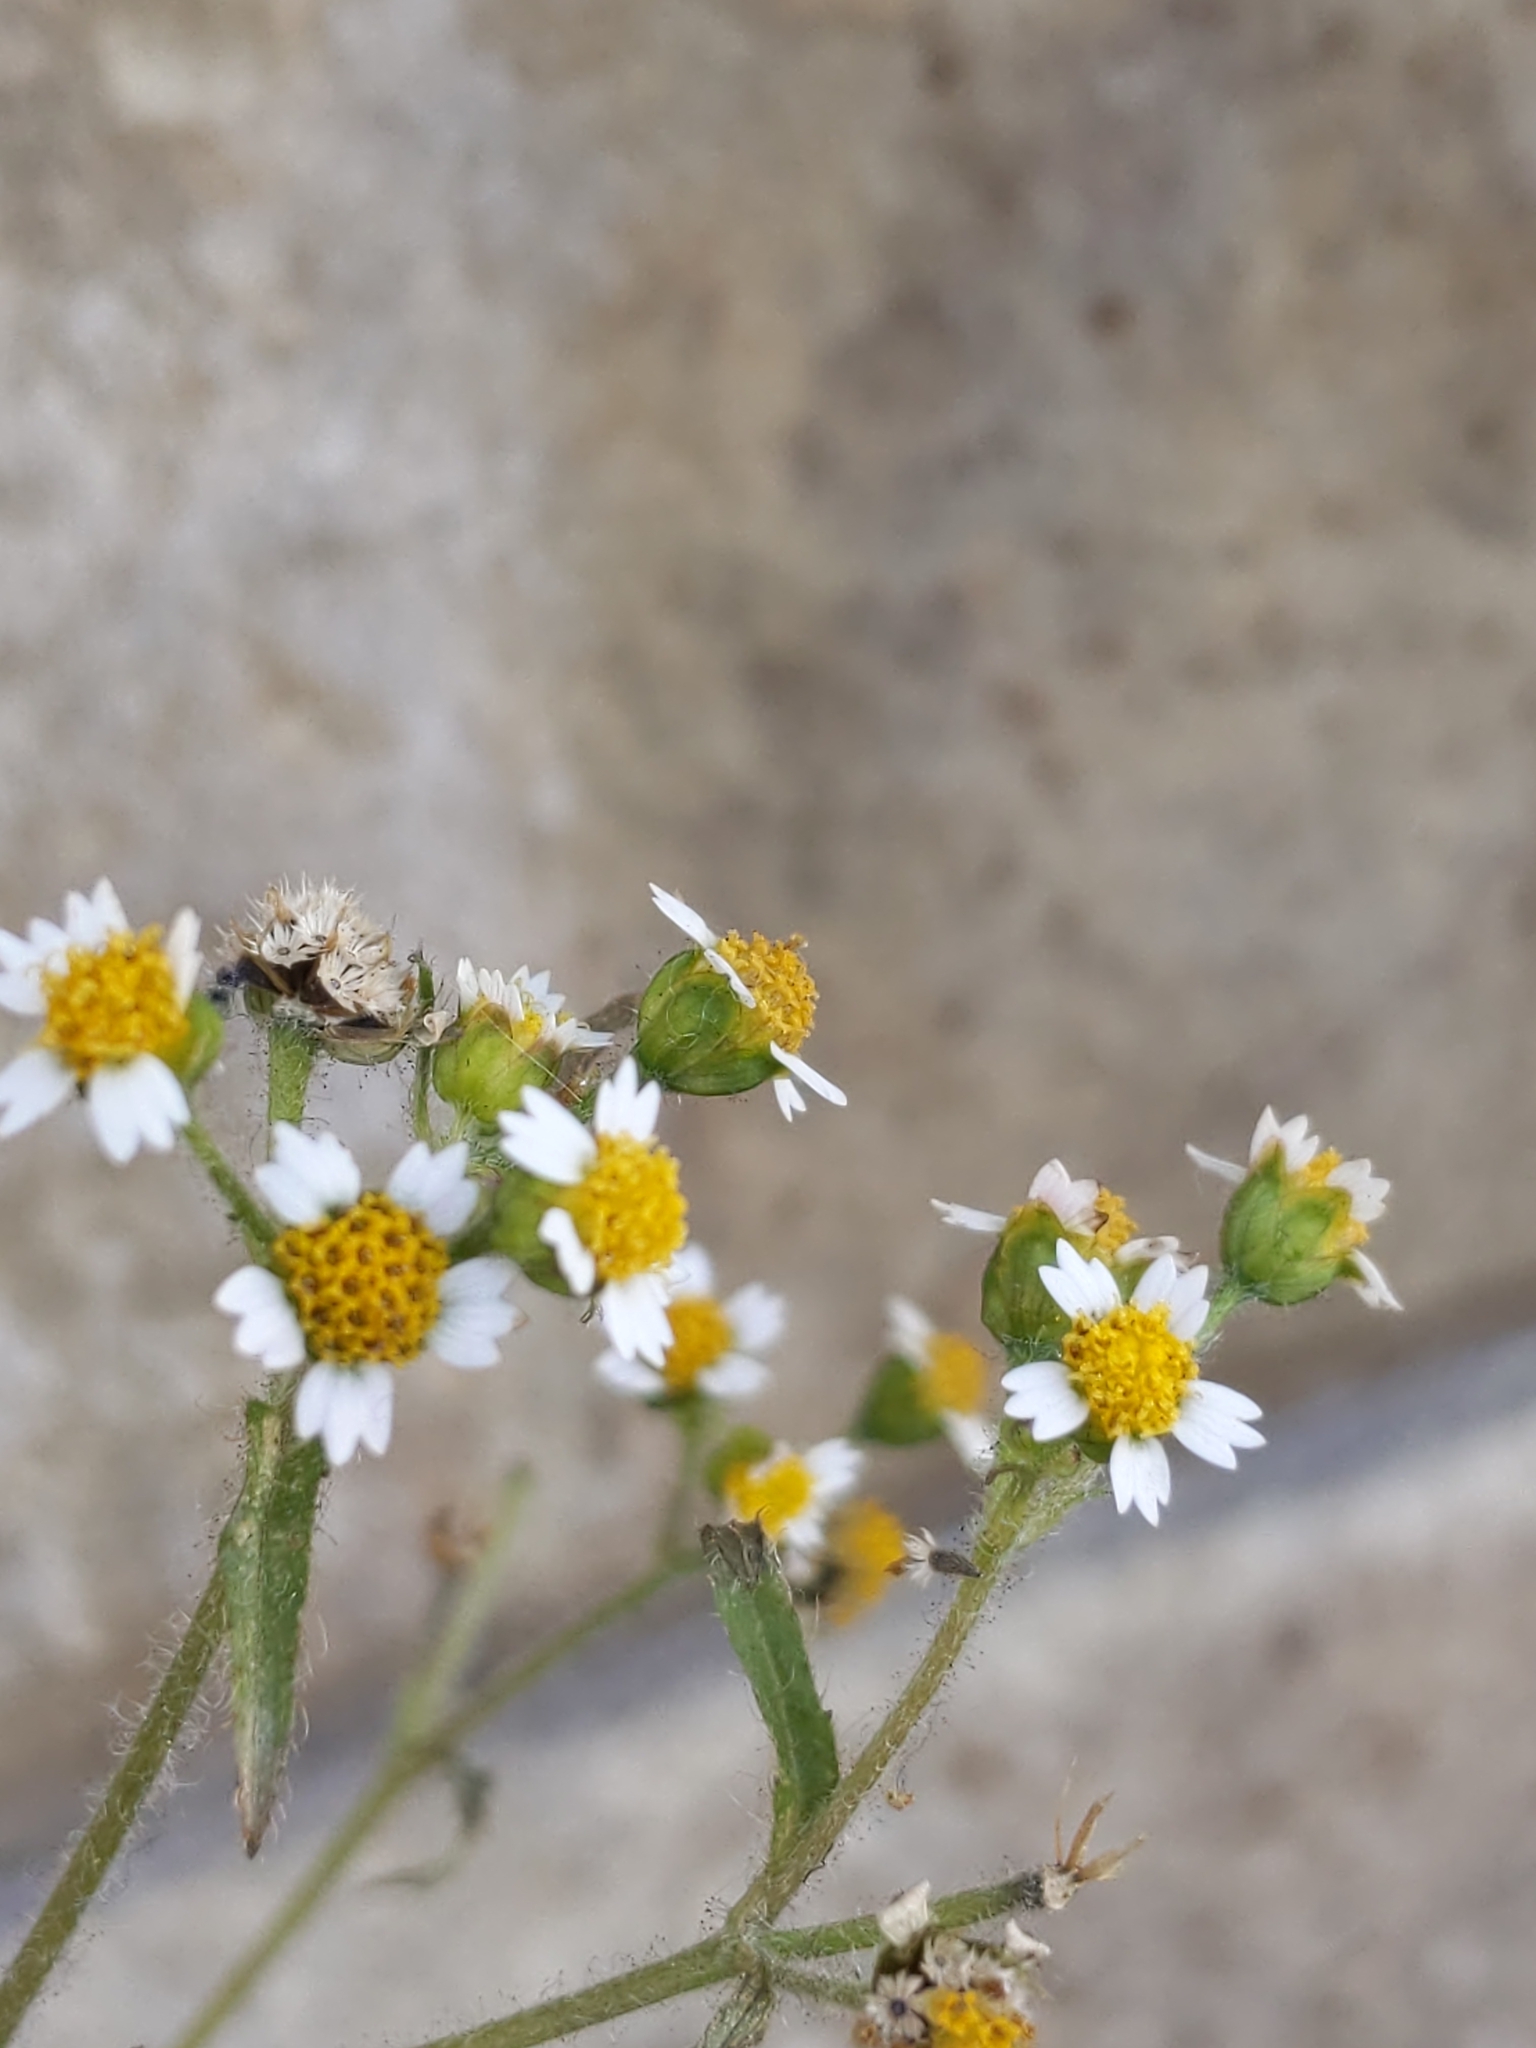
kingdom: Plantae
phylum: Tracheophyta
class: Magnoliopsida
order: Asterales
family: Asteraceae
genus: Galinsoga
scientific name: Galinsoga quadriradiata
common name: Shaggy soldier
